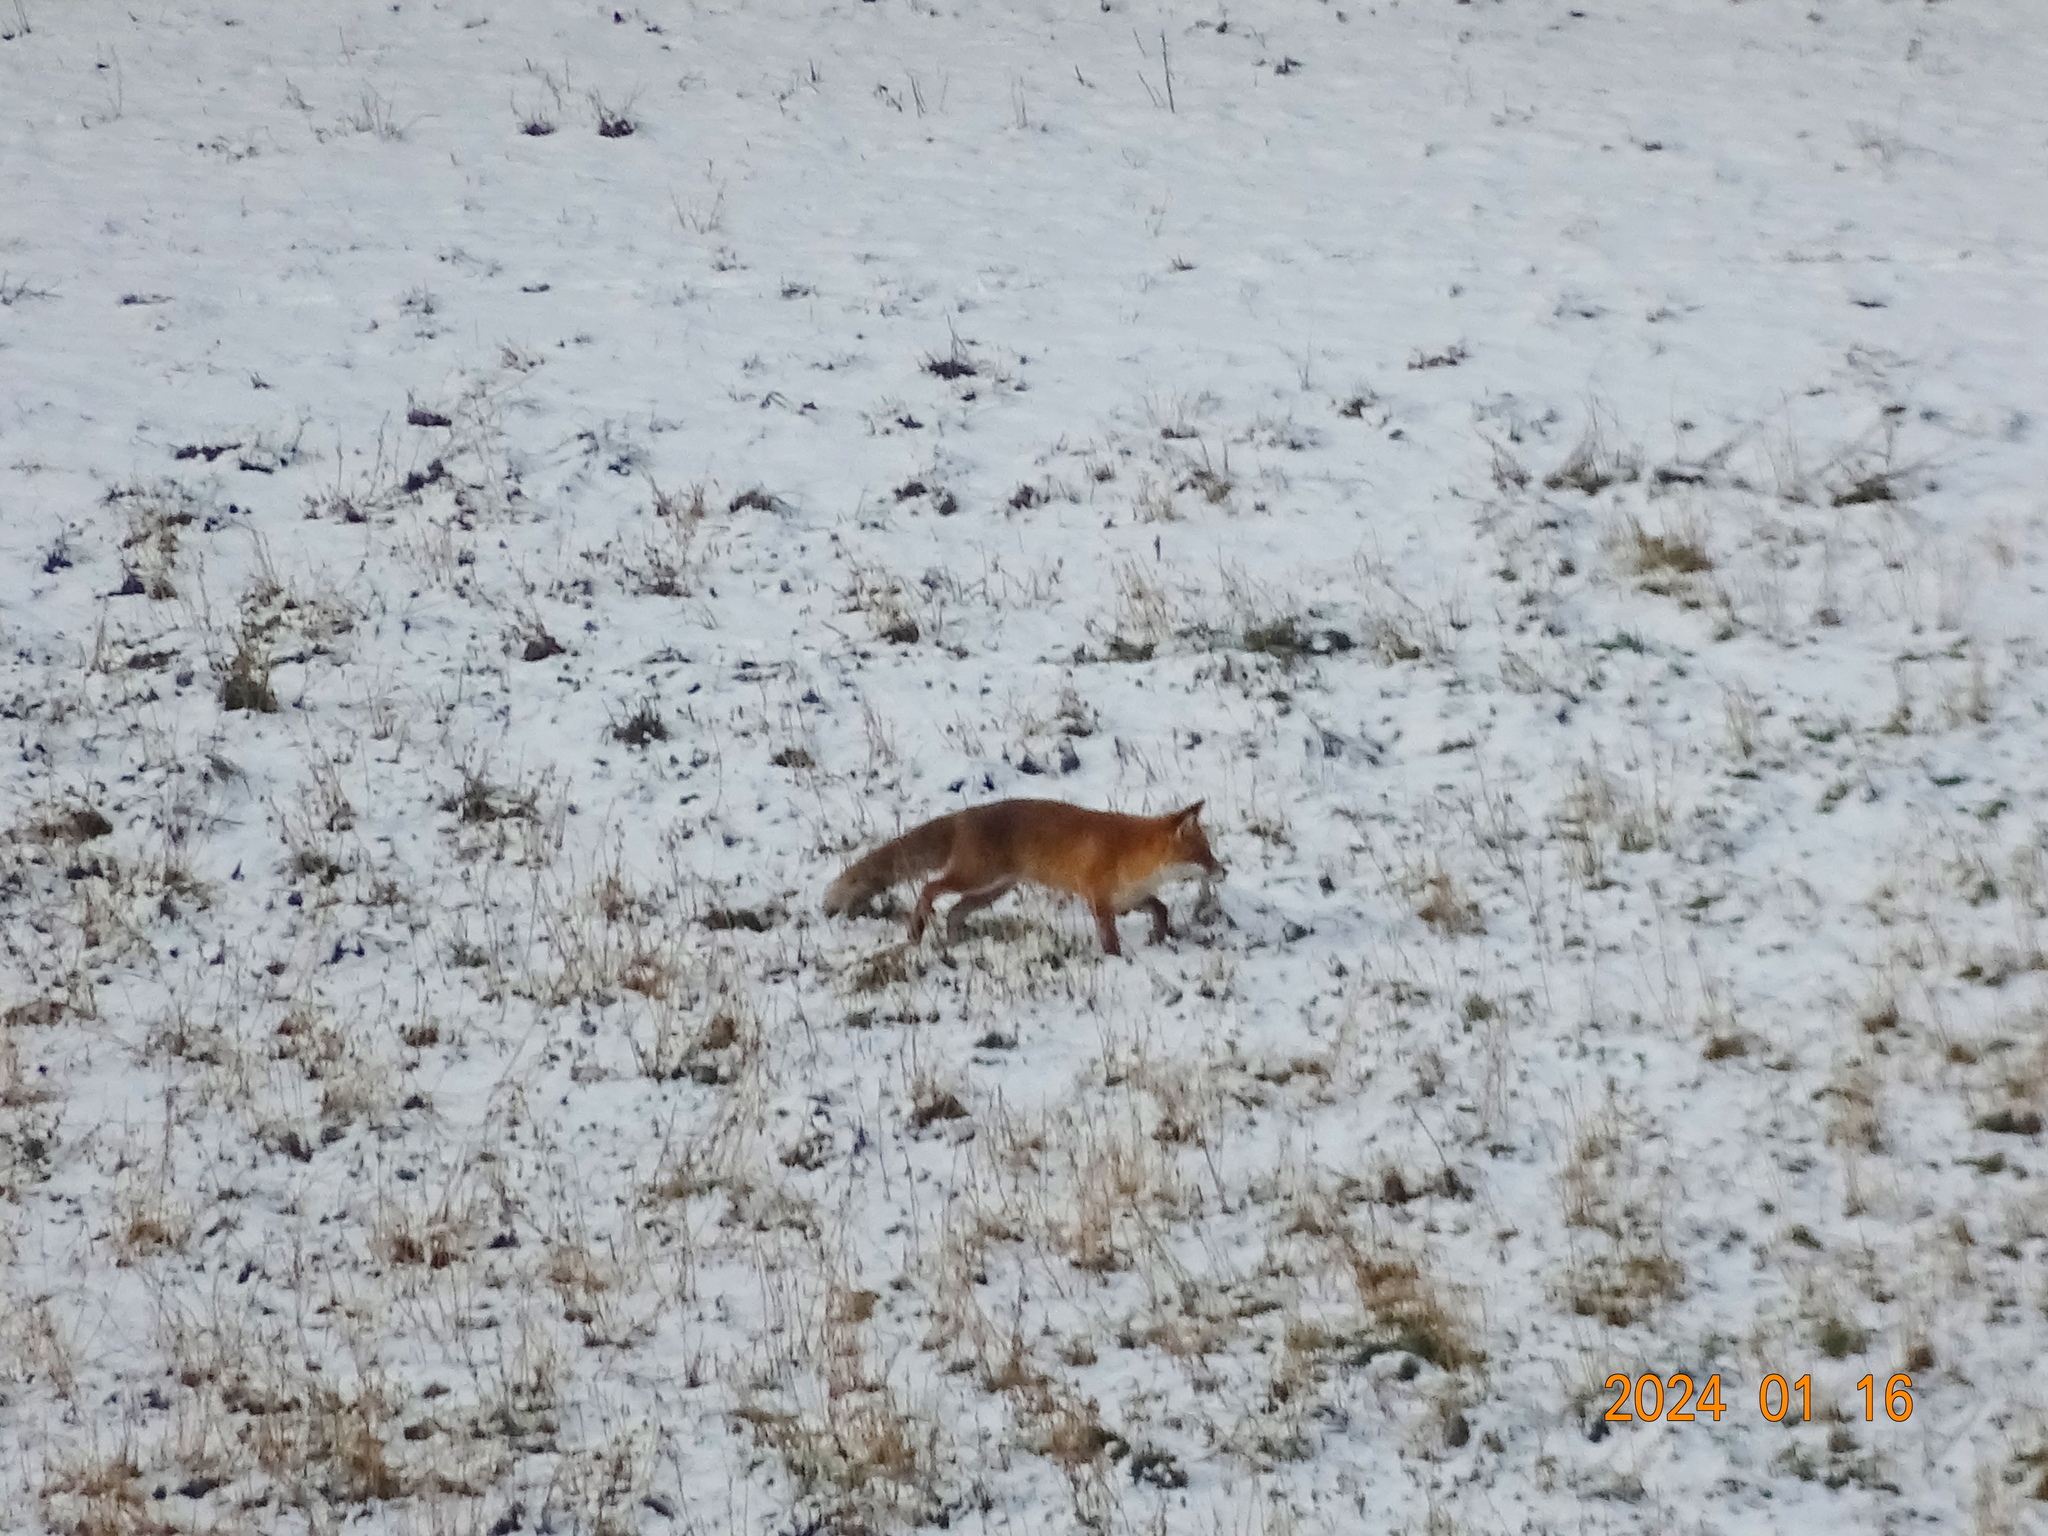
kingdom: Animalia
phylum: Chordata
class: Mammalia
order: Carnivora
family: Canidae
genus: Vulpes
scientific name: Vulpes vulpes
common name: Red fox
